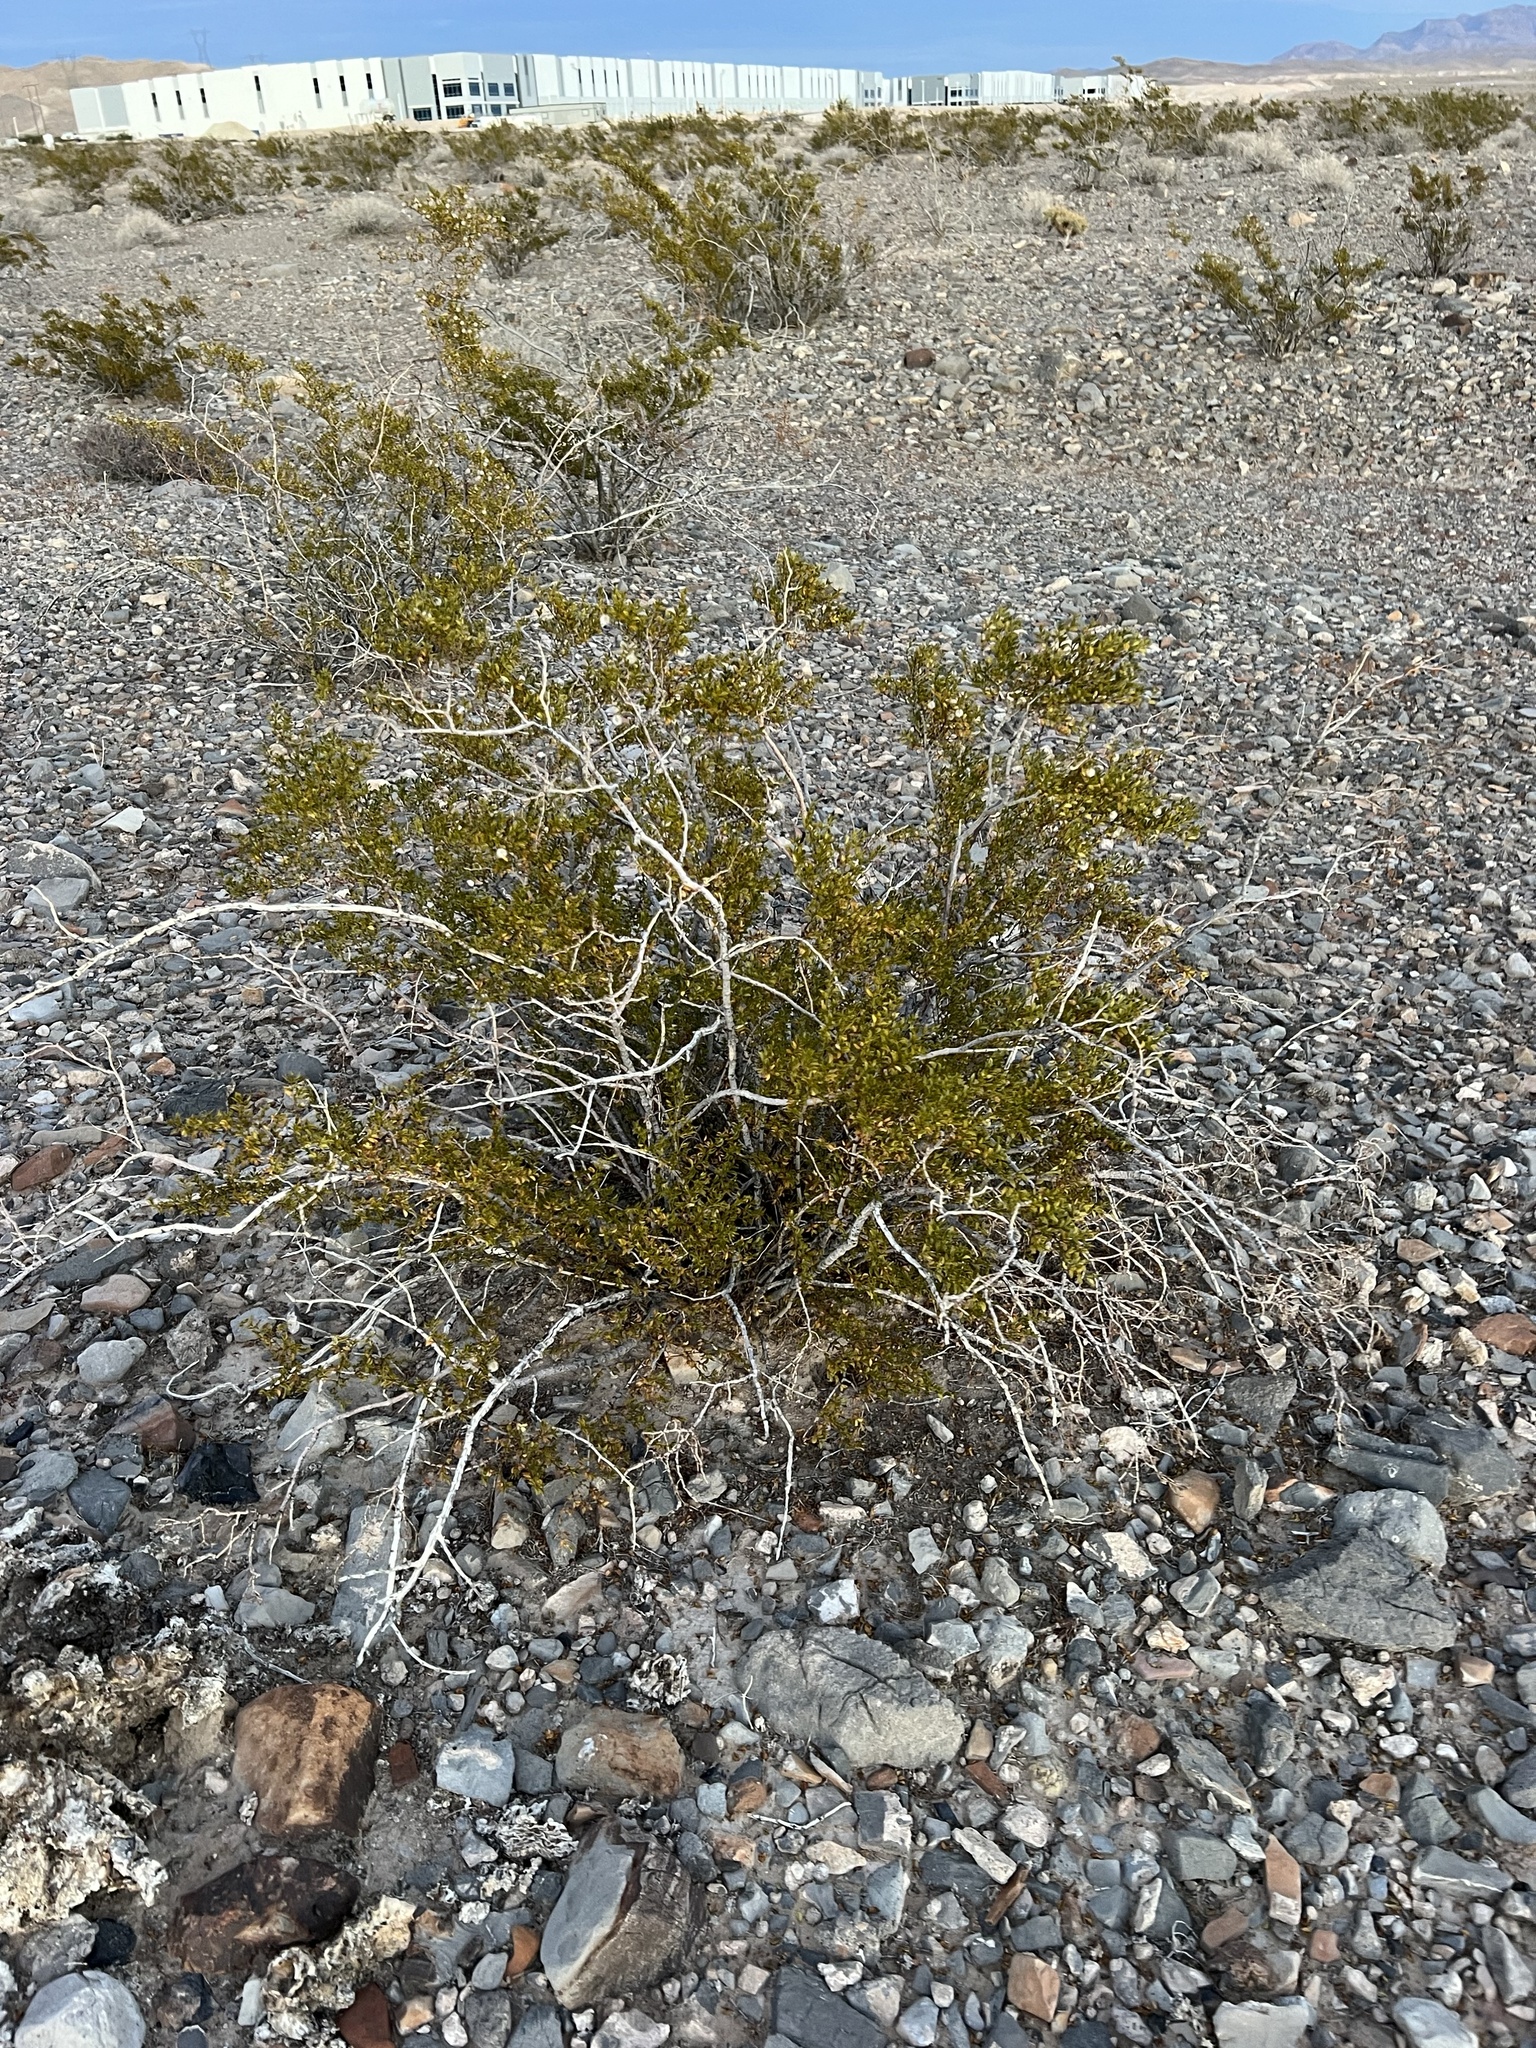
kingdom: Plantae
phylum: Tracheophyta
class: Magnoliopsida
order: Zygophyllales
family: Zygophyllaceae
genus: Larrea
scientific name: Larrea tridentata
